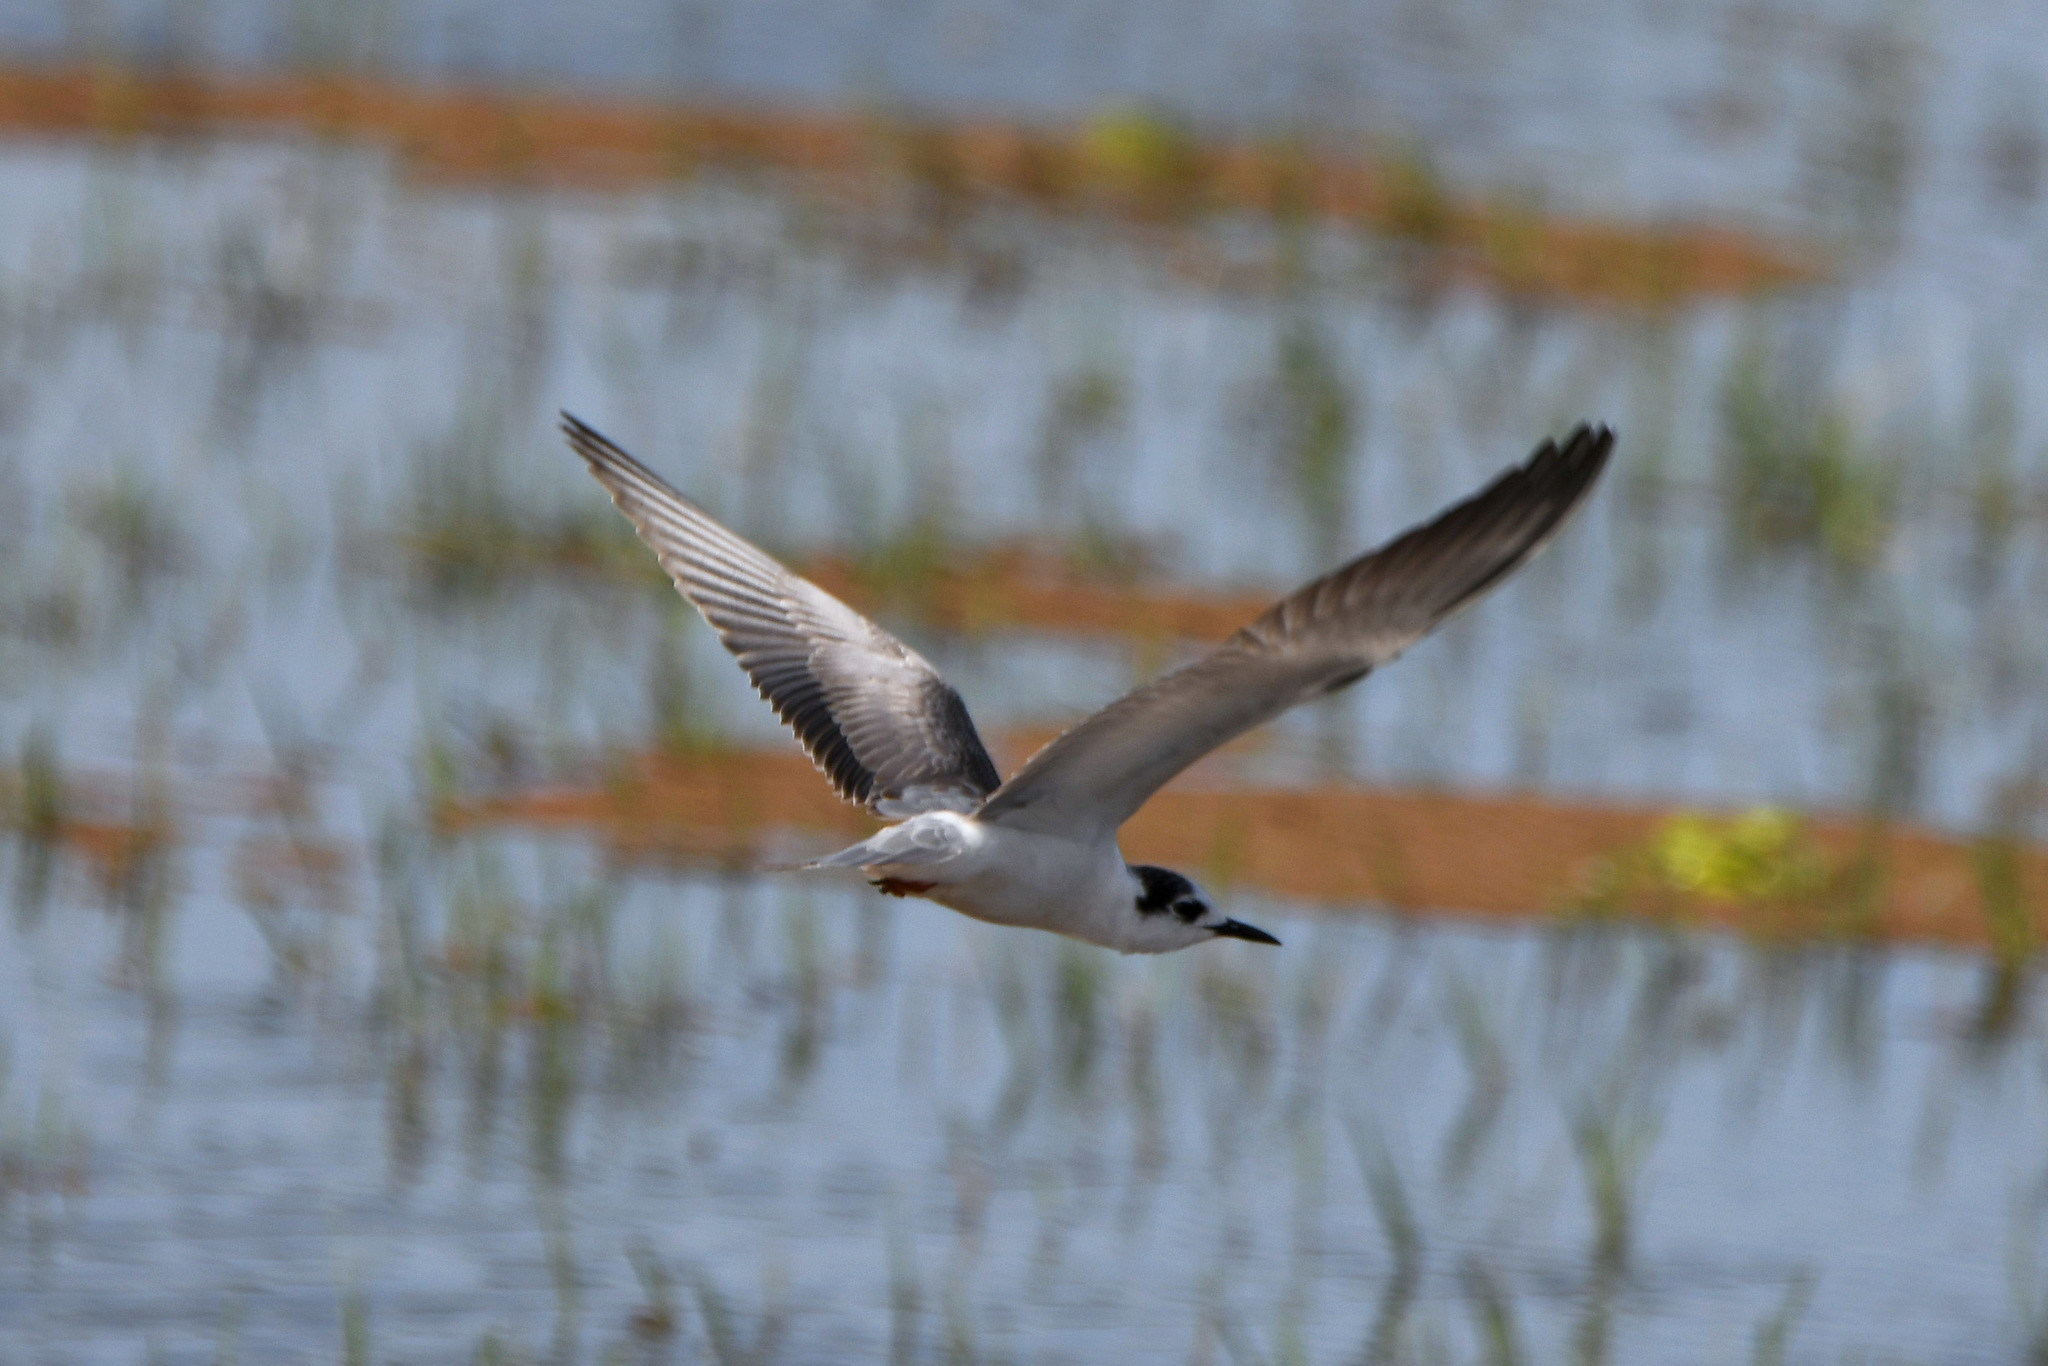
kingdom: Animalia
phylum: Chordata
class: Aves
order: Charadriiformes
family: Laridae
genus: Chlidonias
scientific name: Chlidonias leucopterus
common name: White-winged tern
